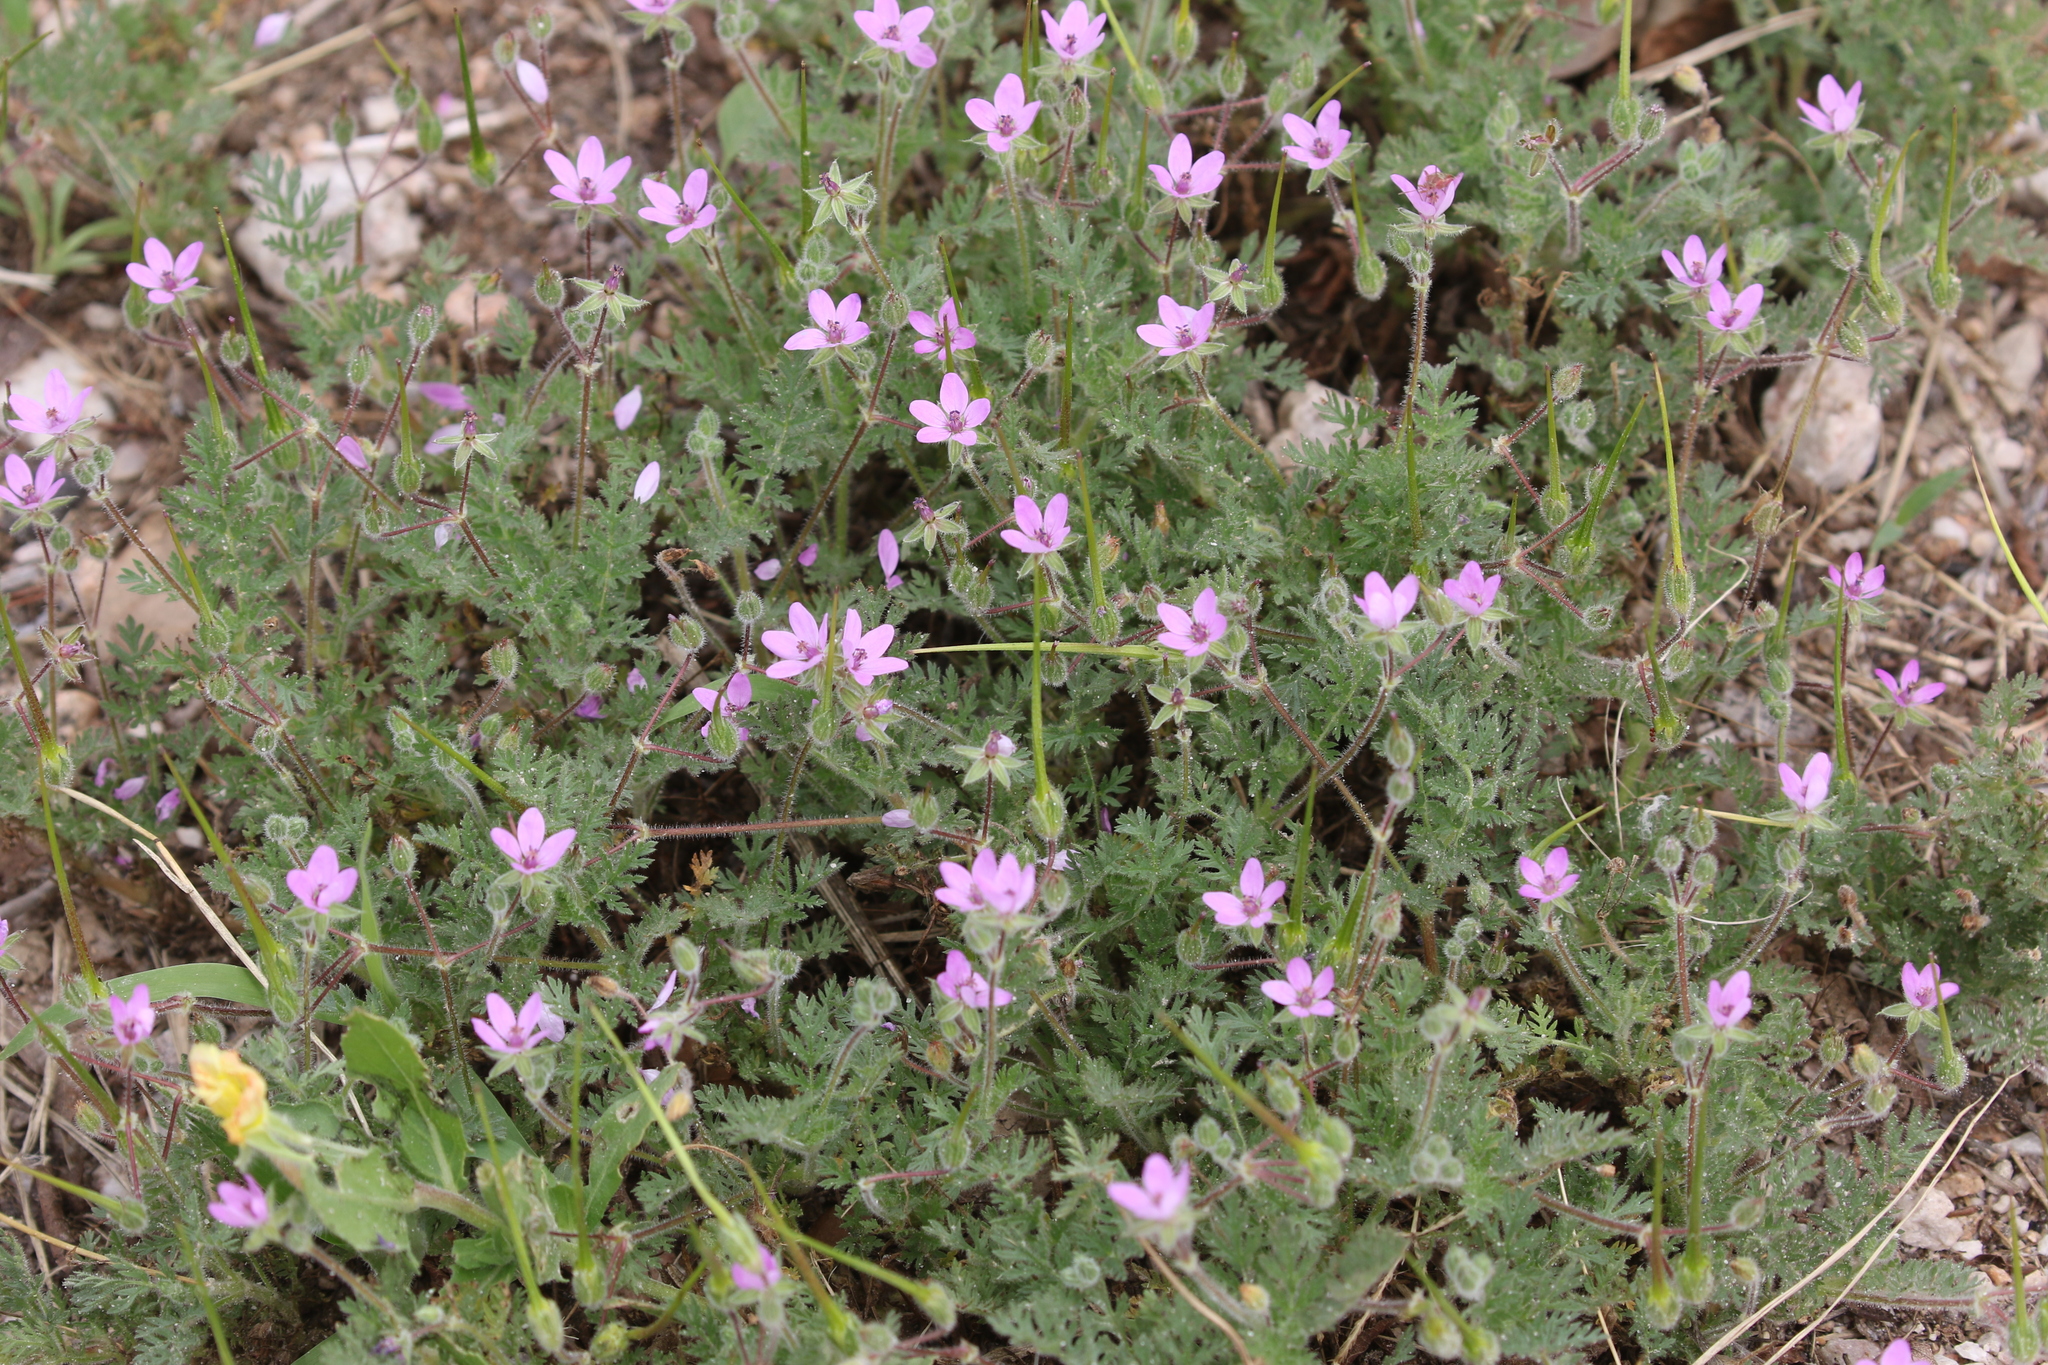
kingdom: Plantae
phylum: Tracheophyta
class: Magnoliopsida
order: Geraniales
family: Geraniaceae
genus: Erodium
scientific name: Erodium cicutarium
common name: Common stork's-bill
